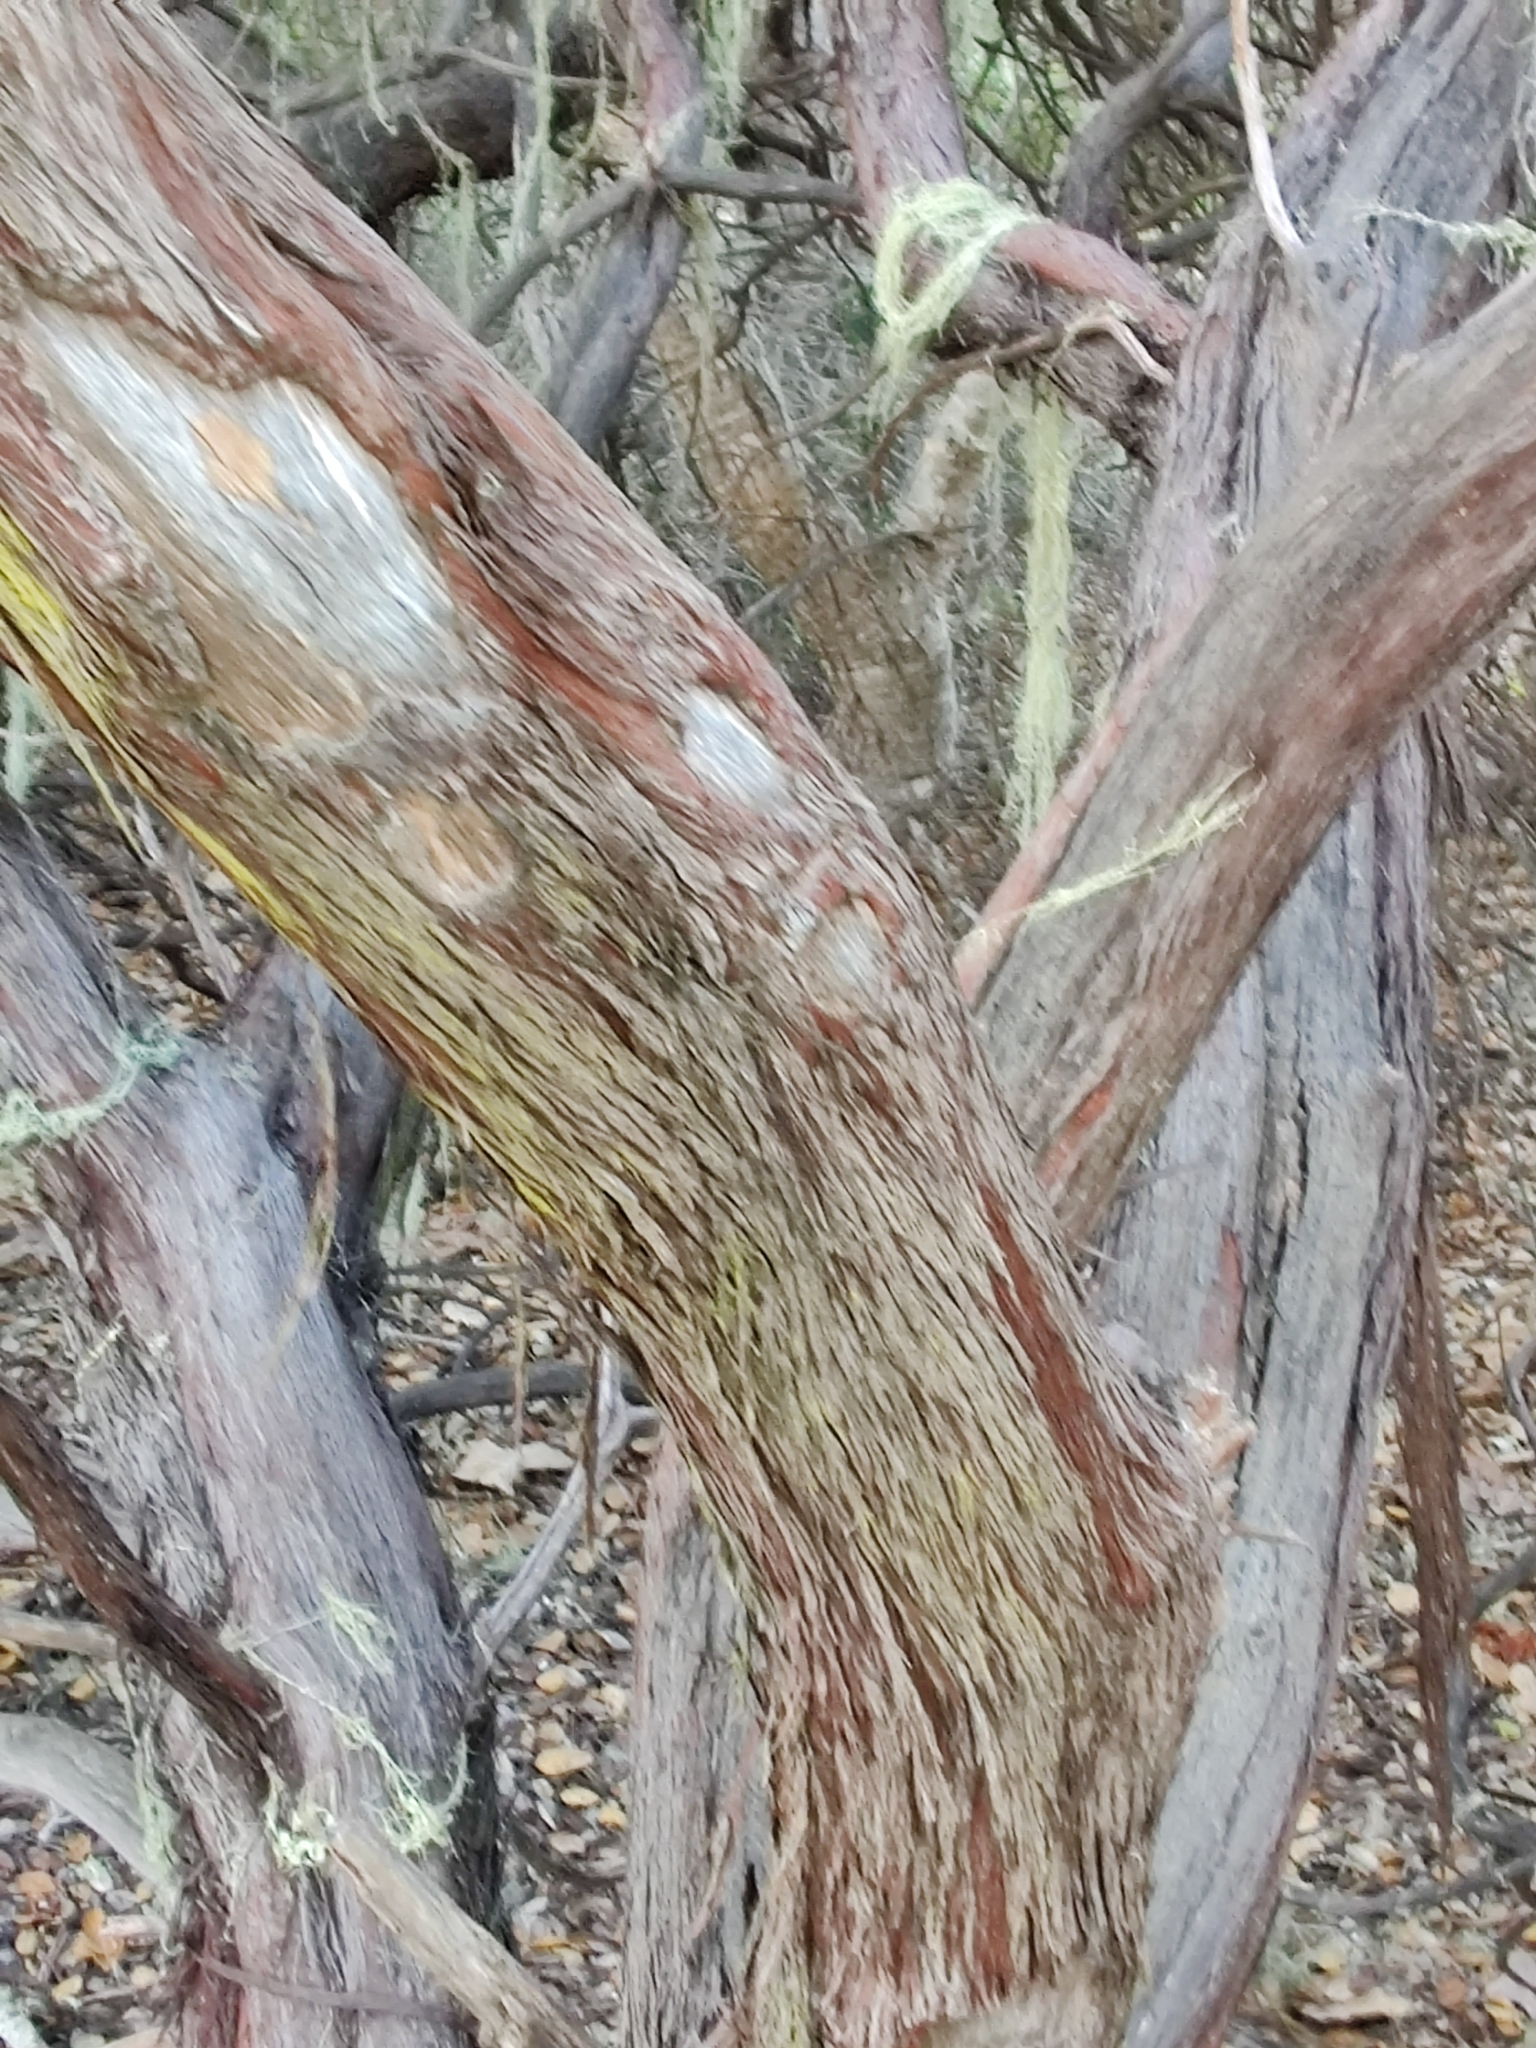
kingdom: Plantae
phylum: Tracheophyta
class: Magnoliopsida
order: Ericales
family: Ericaceae
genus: Arctostaphylos
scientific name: Arctostaphylos morroensis
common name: Morro manzanita
